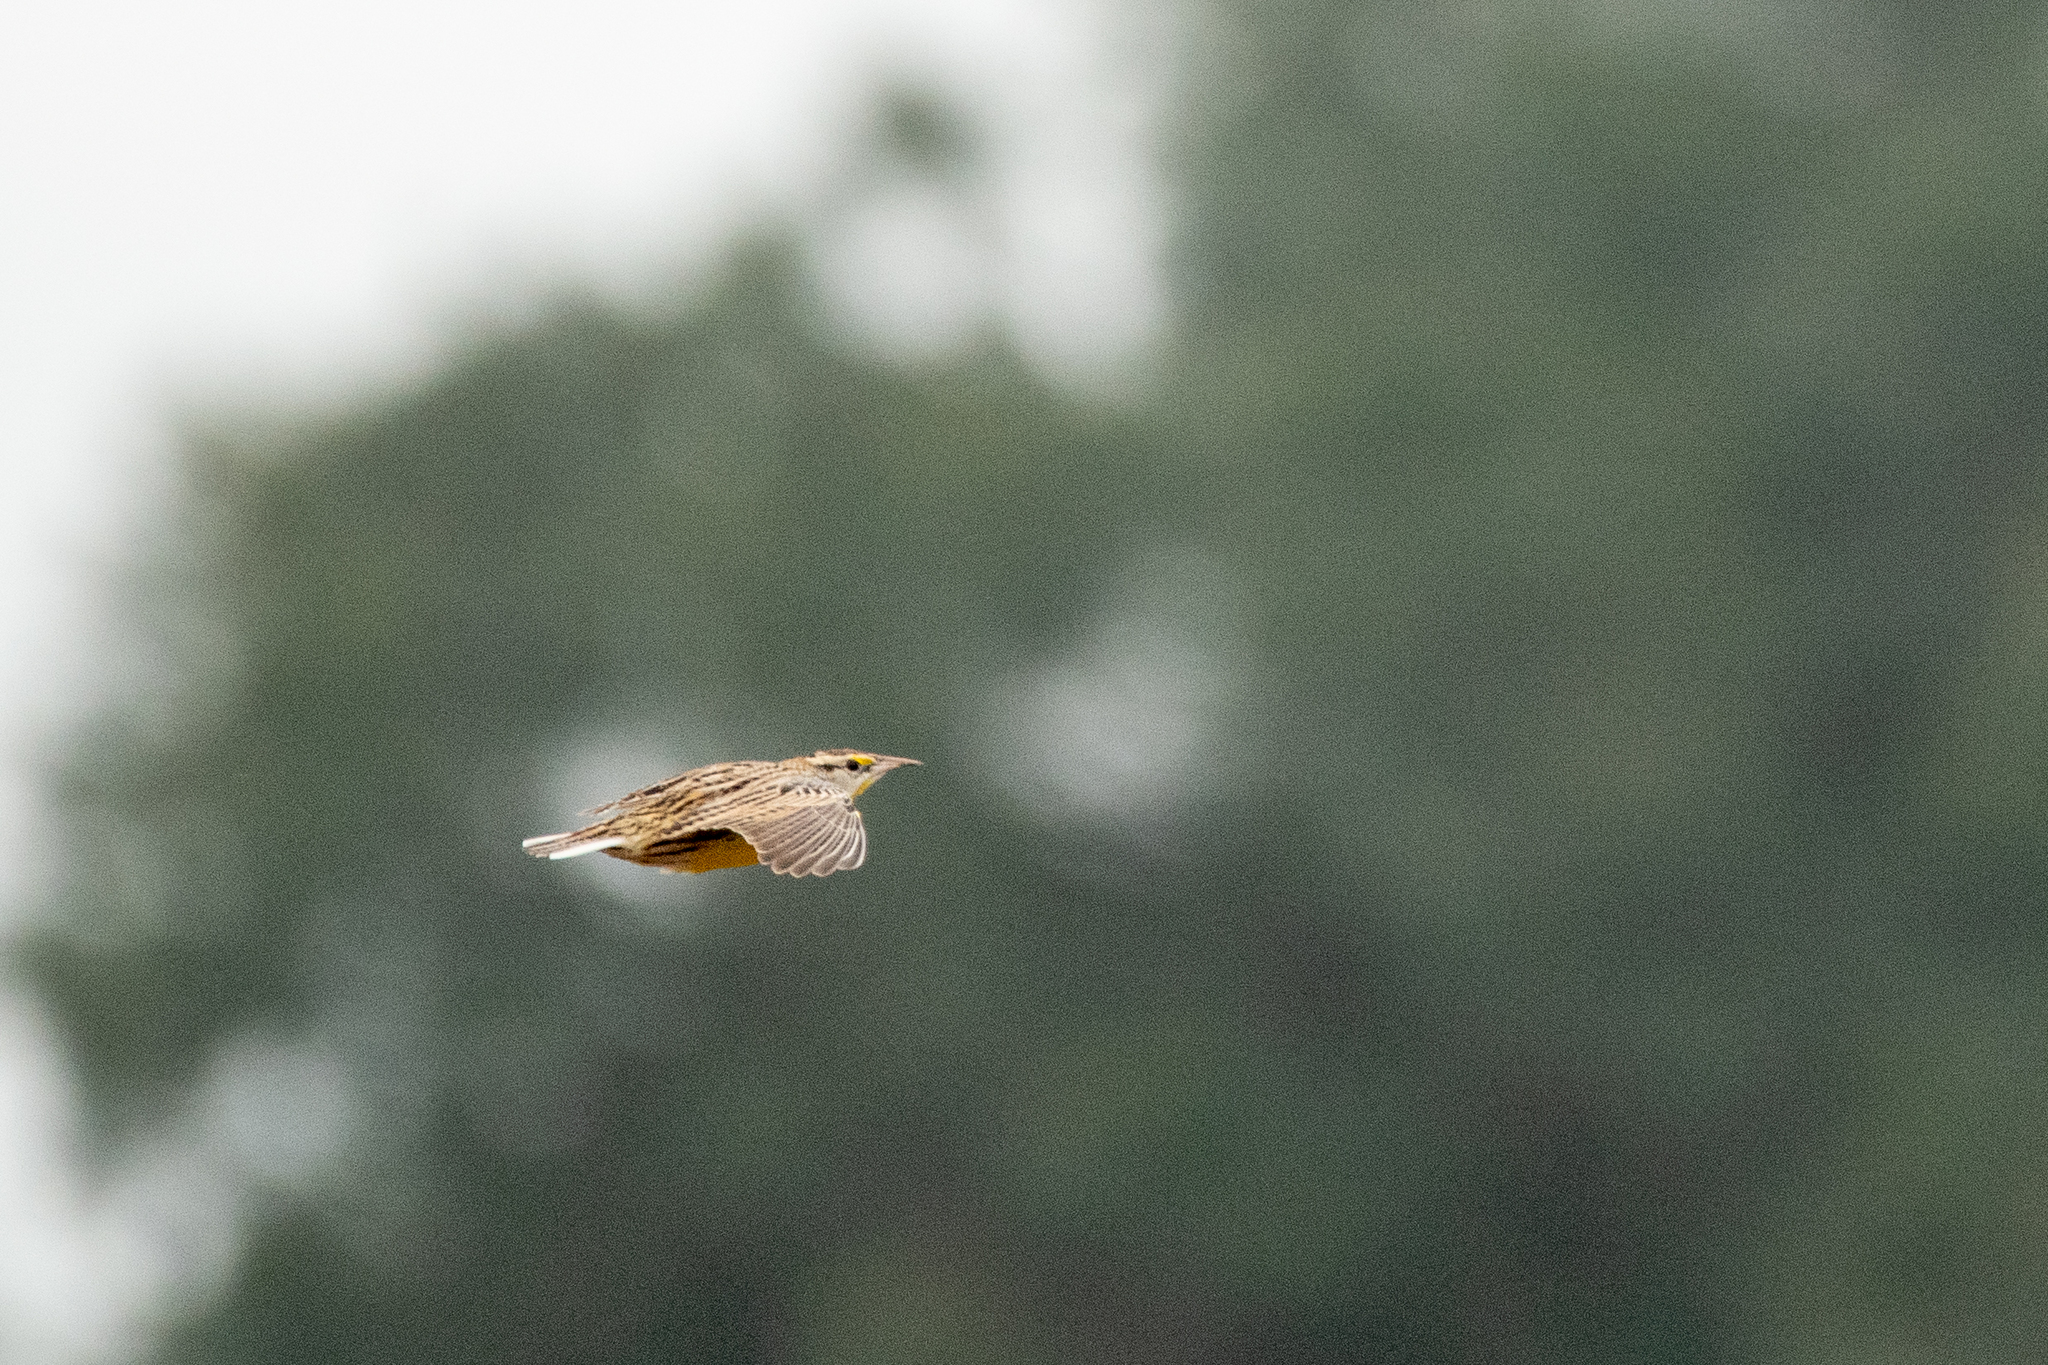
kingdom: Animalia
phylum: Chordata
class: Aves
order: Passeriformes
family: Icteridae
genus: Sturnella
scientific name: Sturnella magna
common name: Eastern meadowlark
